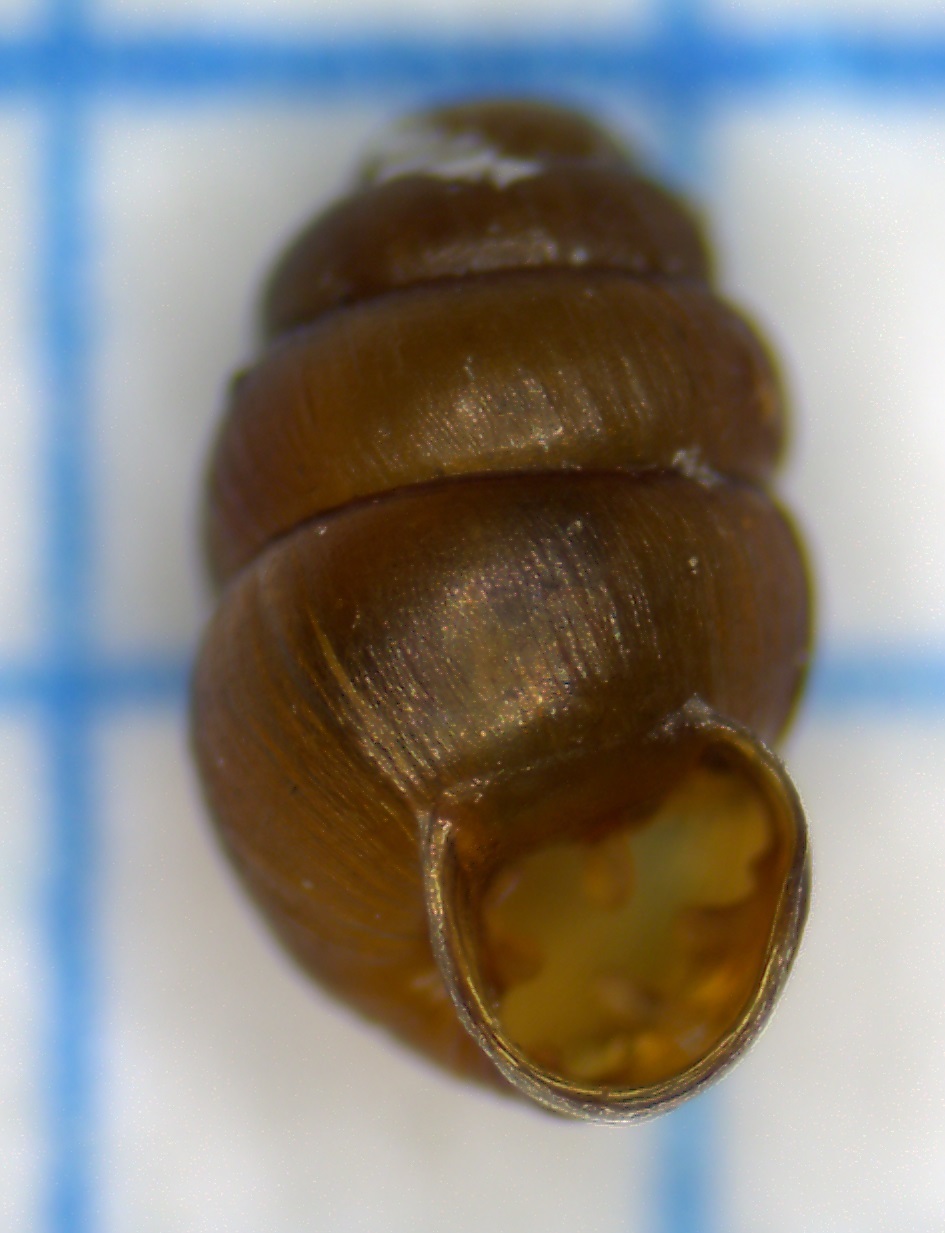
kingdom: Animalia
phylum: Mollusca
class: Gastropoda
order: Stylommatophora
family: Vertiginidae
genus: Vertigo
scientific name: Vertigo pygmaea
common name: Common whorl snail
